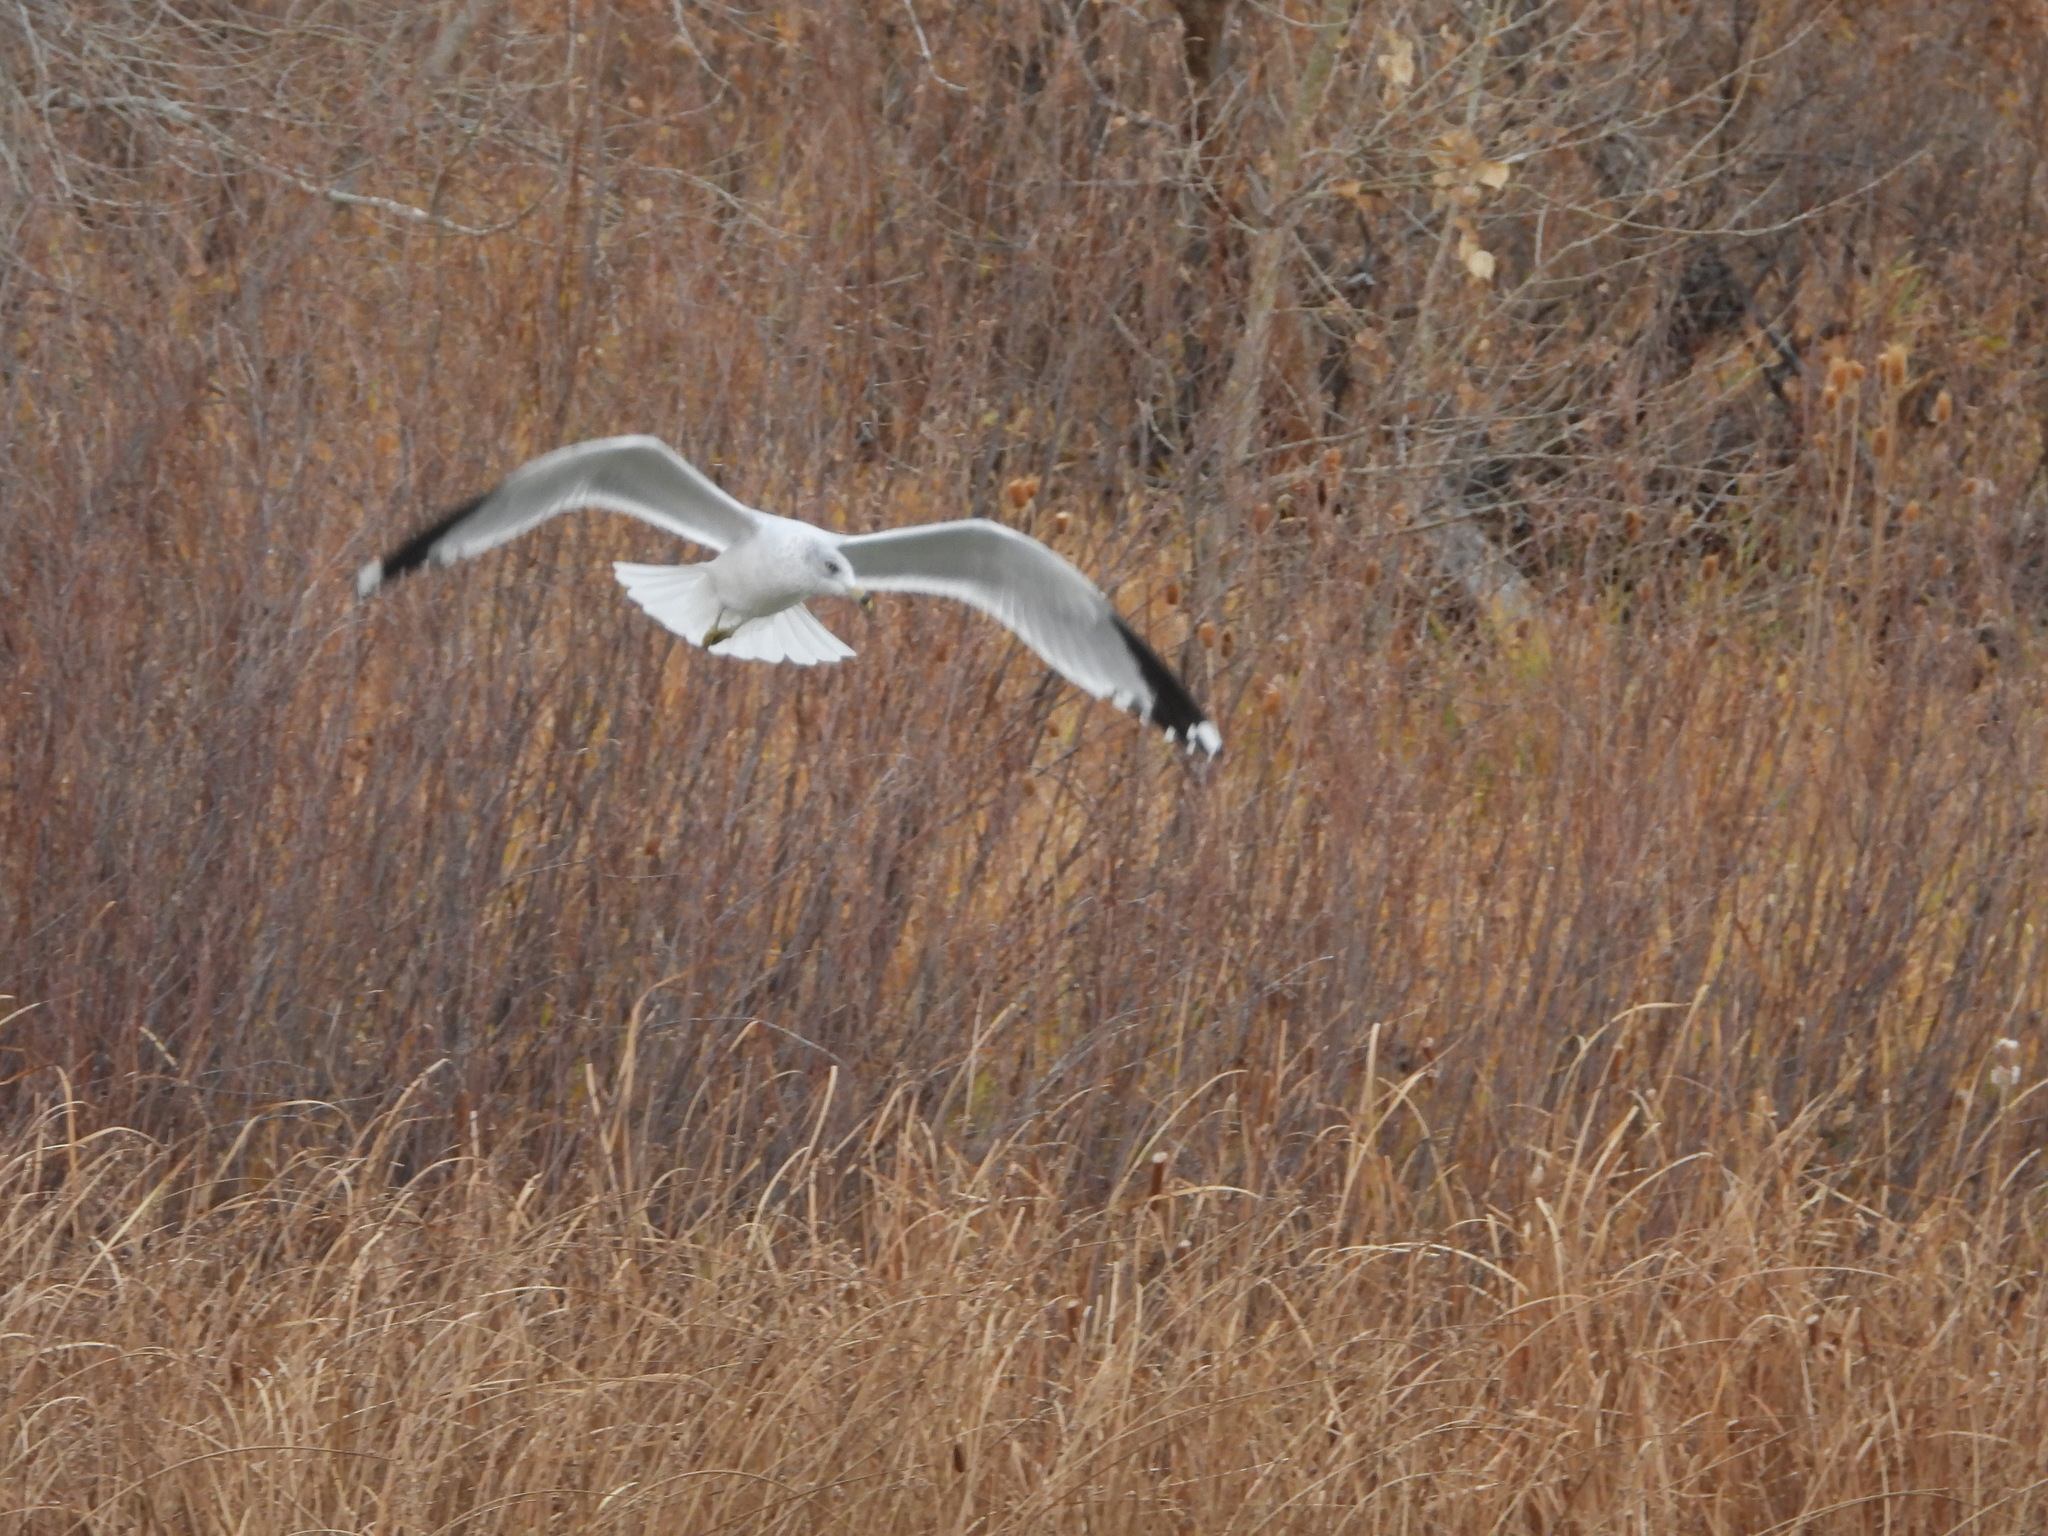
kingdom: Animalia
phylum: Chordata
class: Aves
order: Charadriiformes
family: Laridae
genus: Larus
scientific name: Larus delawarensis
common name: Ring-billed gull
